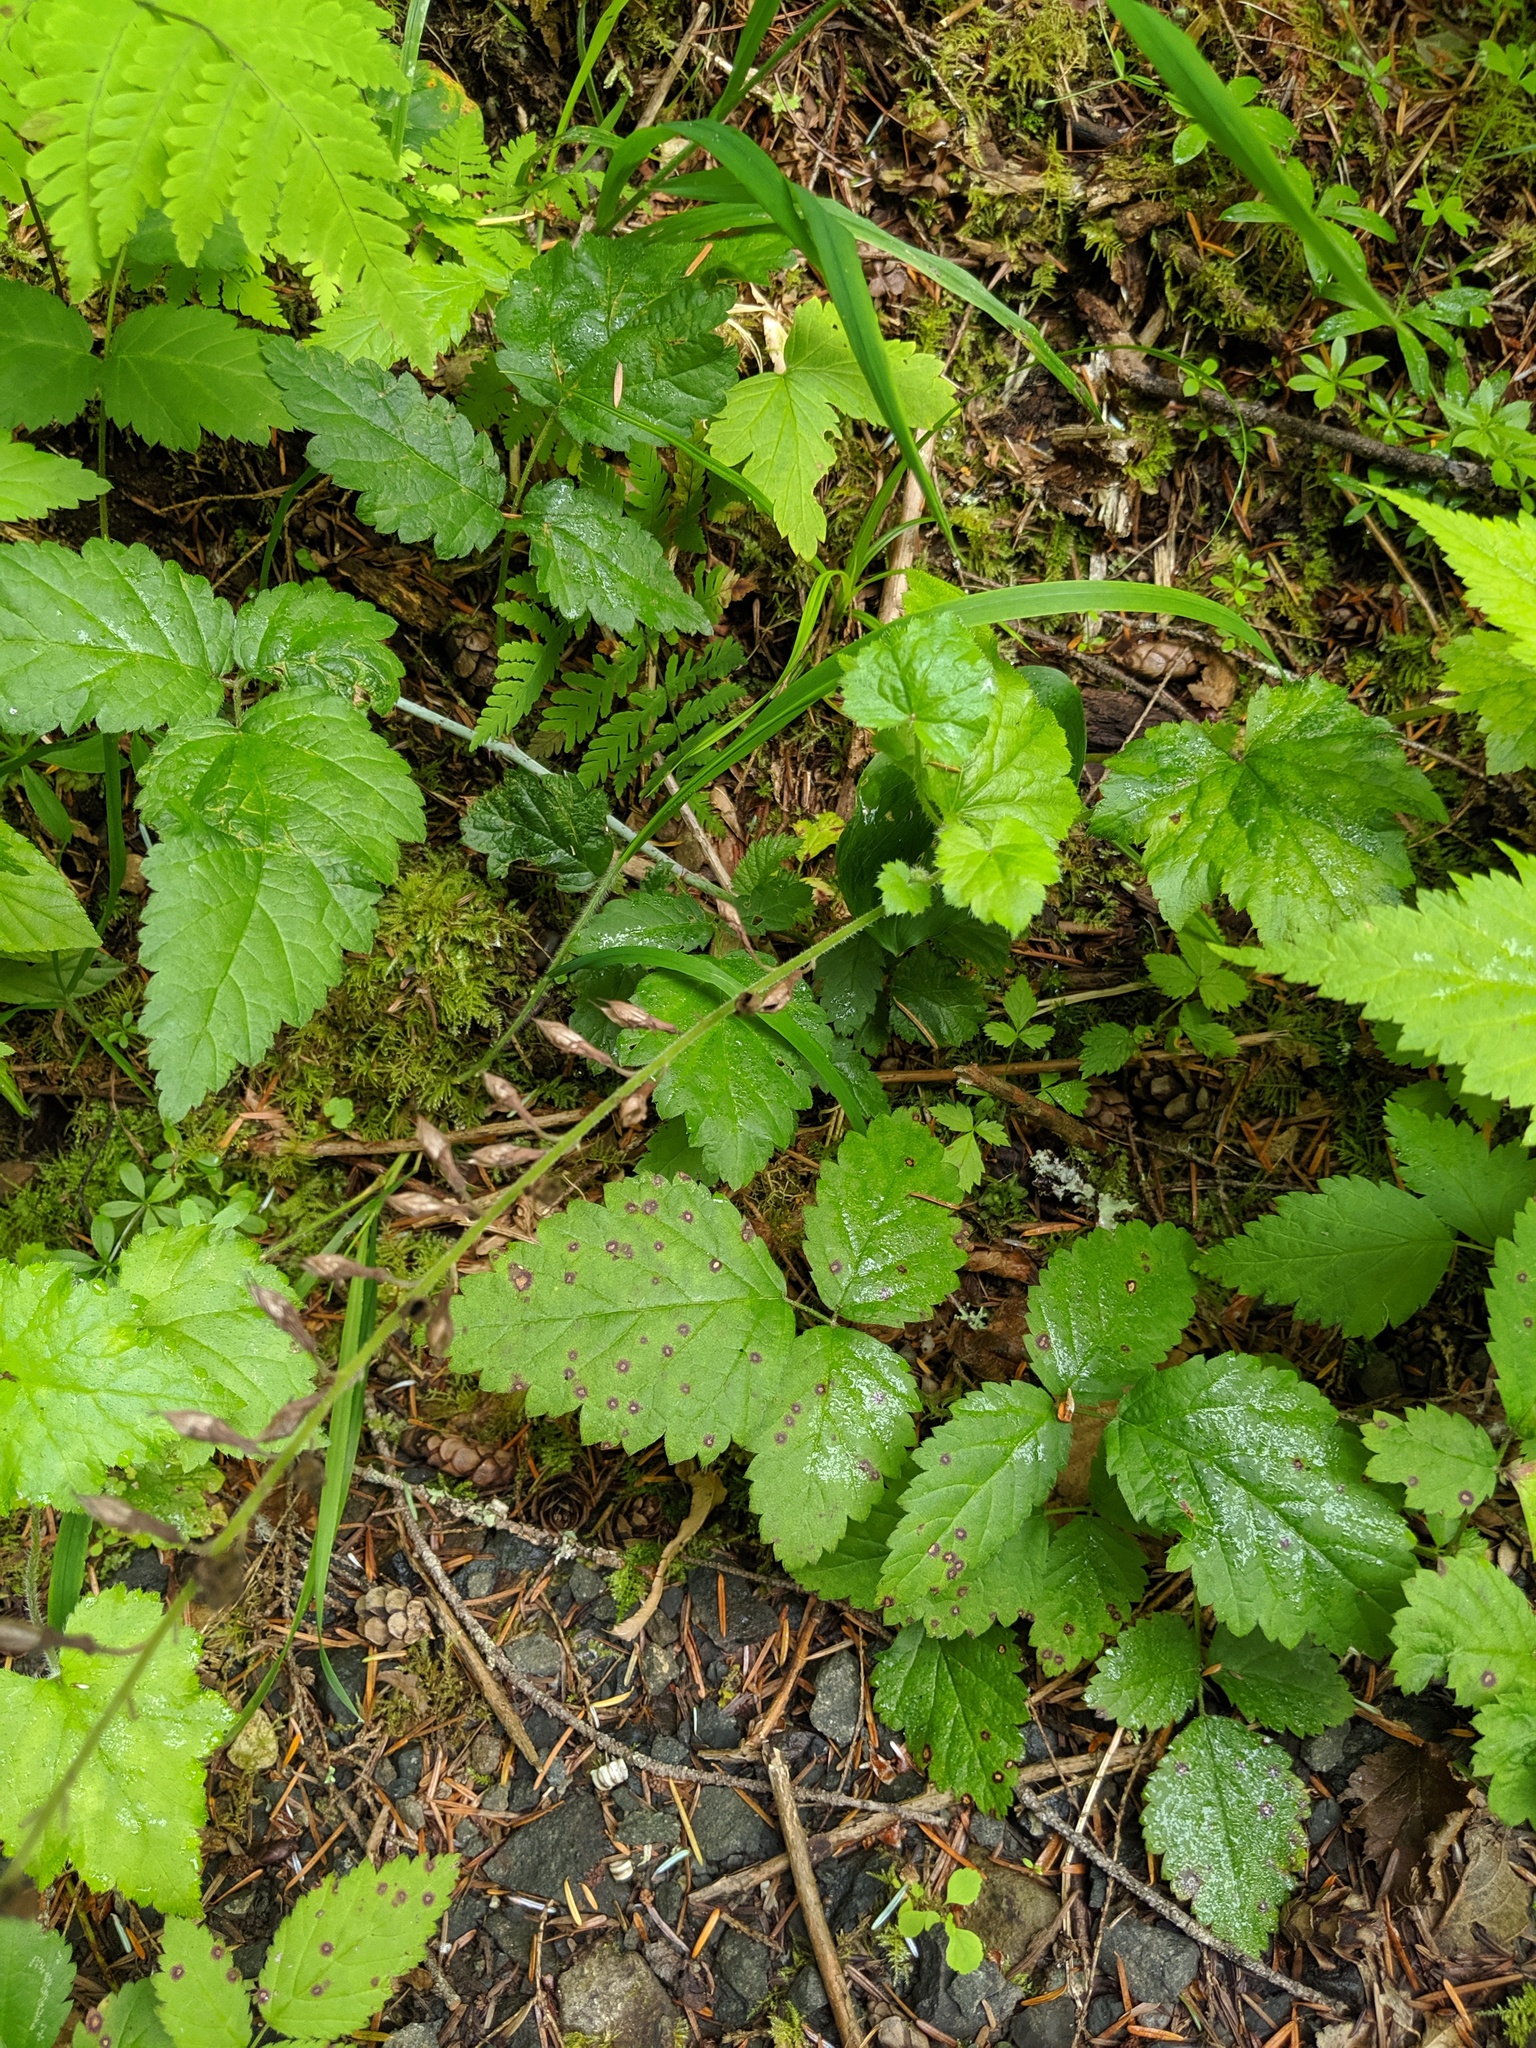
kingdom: Plantae
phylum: Tracheophyta
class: Magnoliopsida
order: Saxifragales
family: Saxifragaceae
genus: Tolmiea
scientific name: Tolmiea menziesii
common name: Pick-a-back-plant
